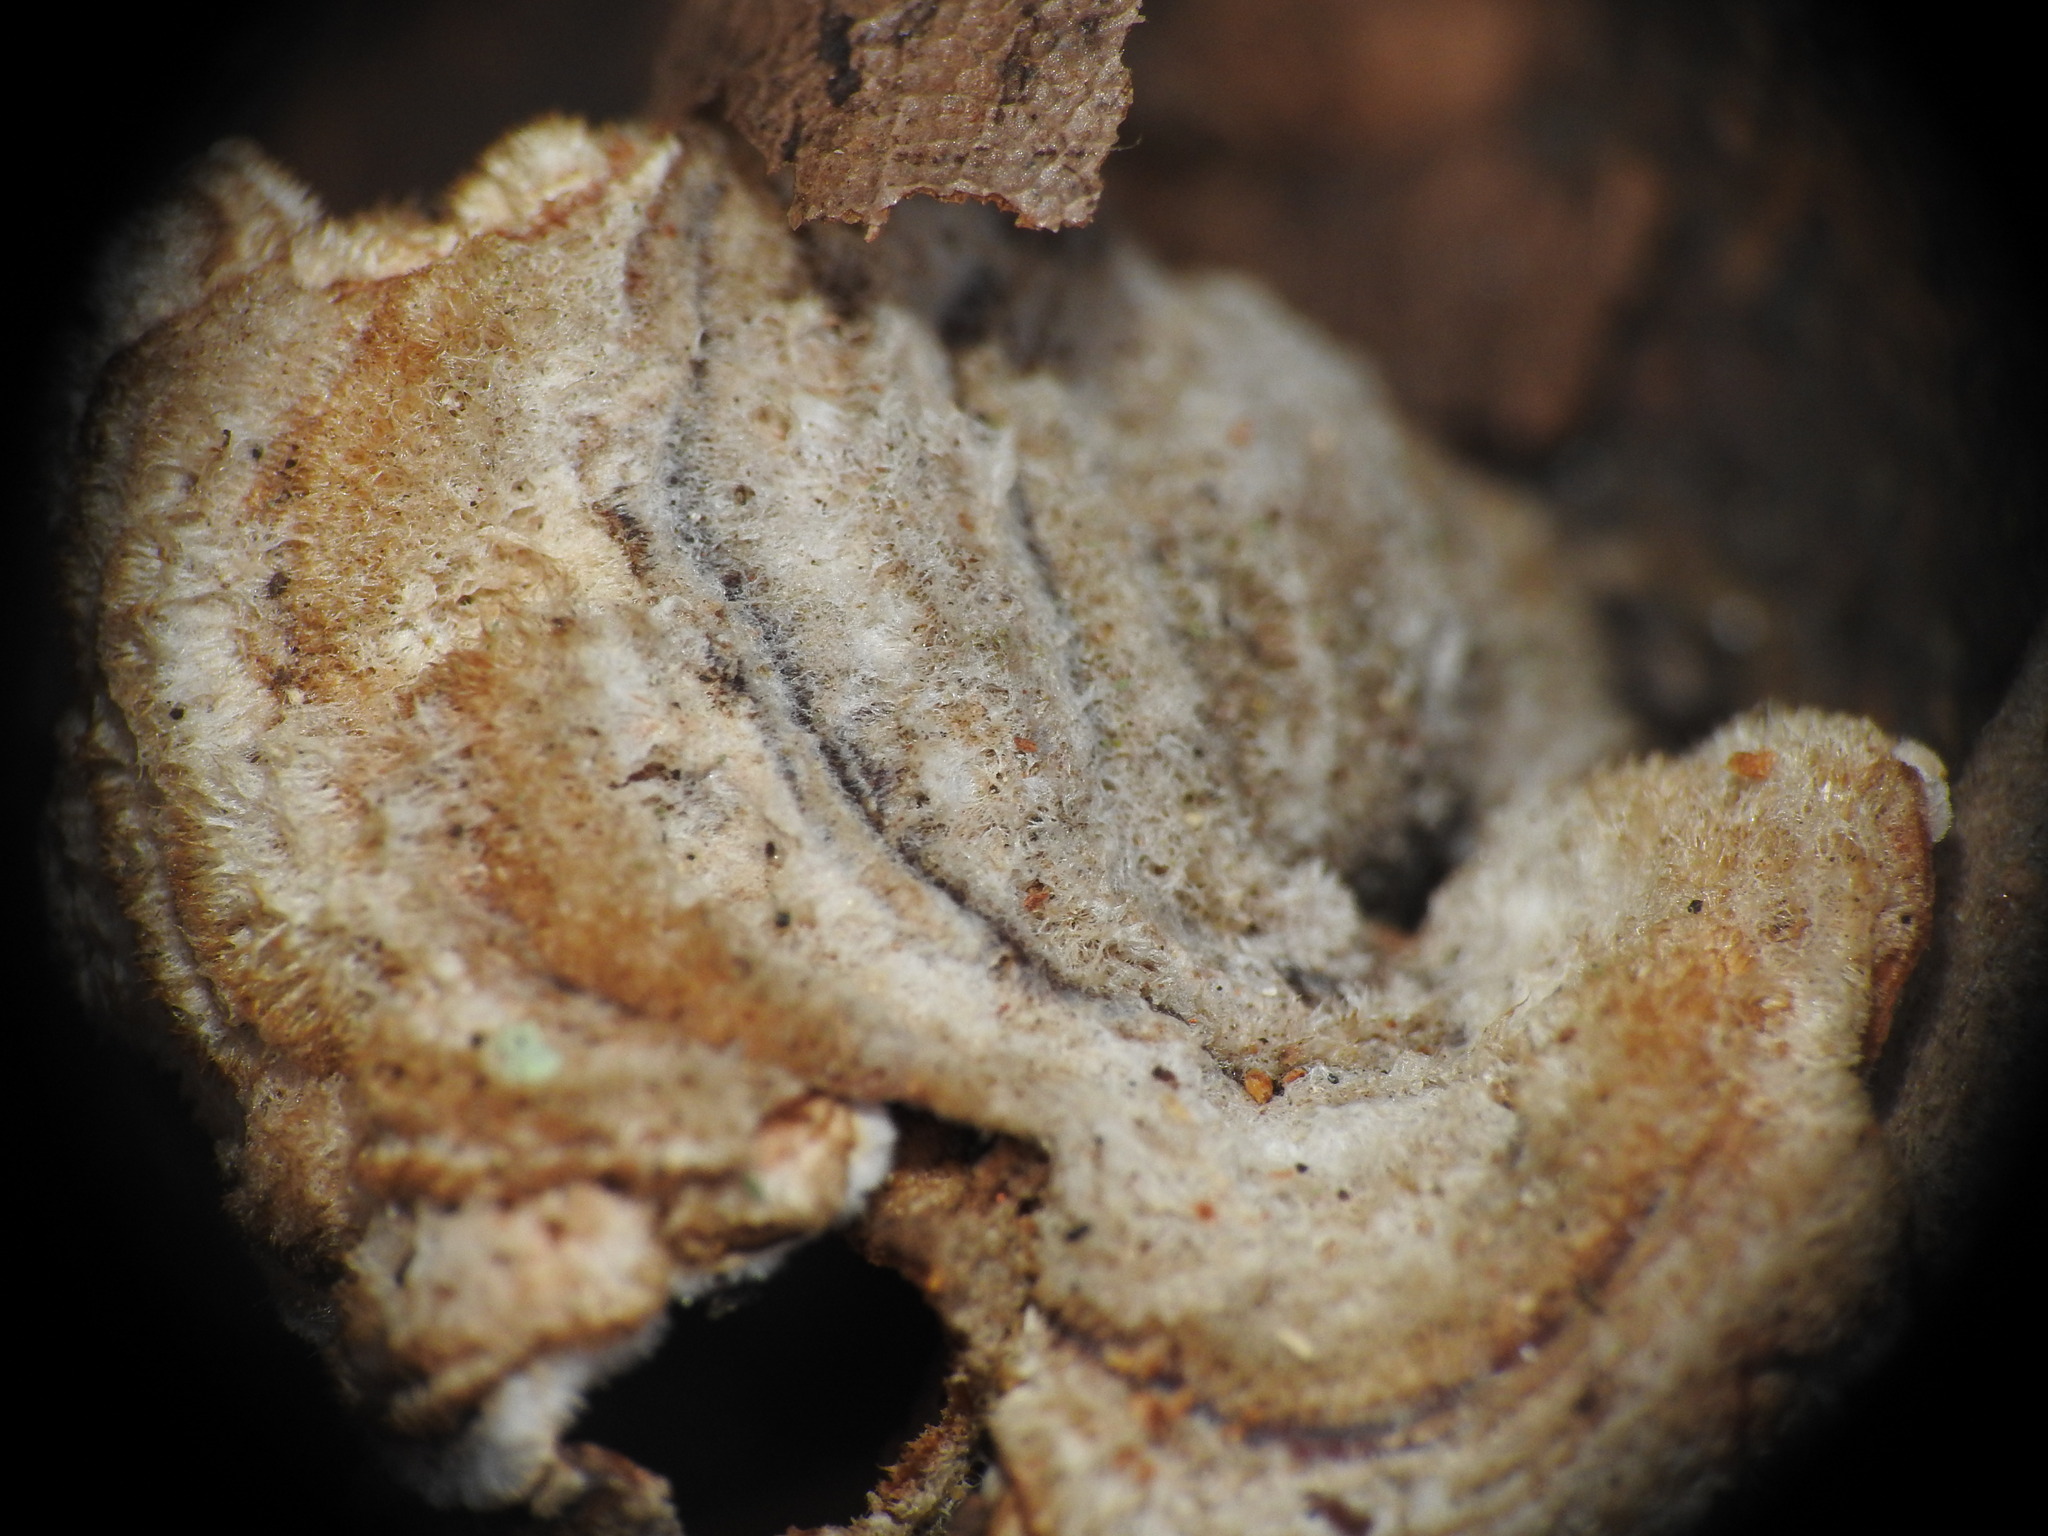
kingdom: Fungi
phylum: Basidiomycota
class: Agaricomycetes
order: Russulales
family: Stereaceae
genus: Stereum
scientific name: Stereum hirsutum
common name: Hairy curtain crust
